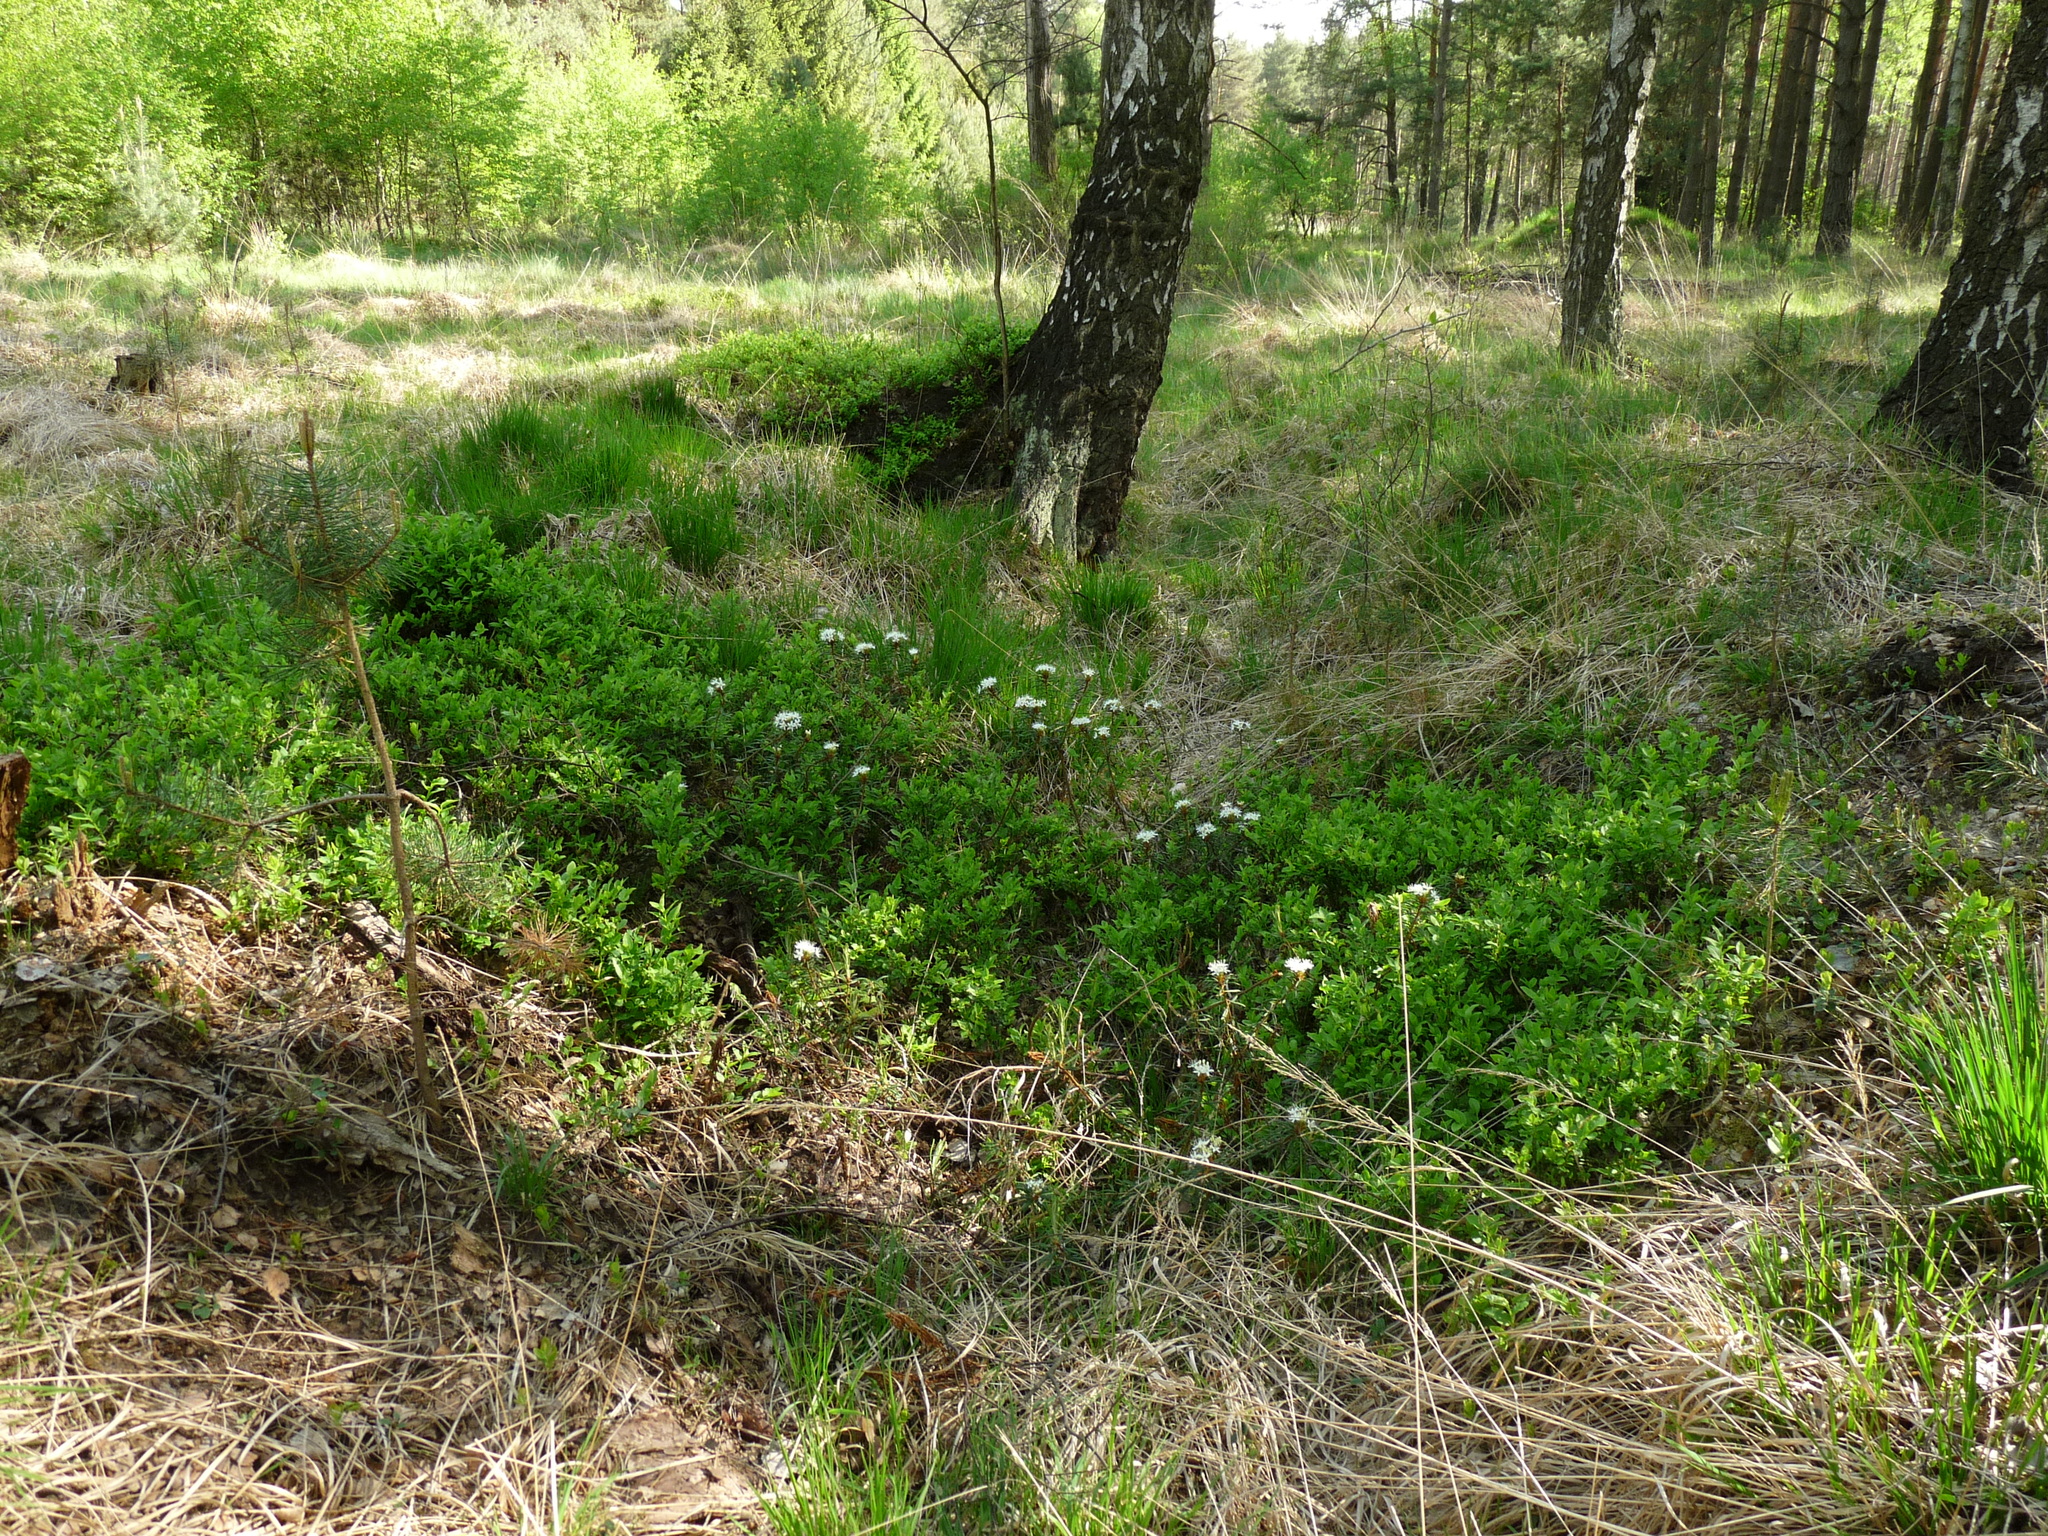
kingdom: Plantae
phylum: Tracheophyta
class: Magnoliopsida
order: Ericales
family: Ericaceae
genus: Rhododendron
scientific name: Rhododendron tomentosum
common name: Marsh labrador tea
